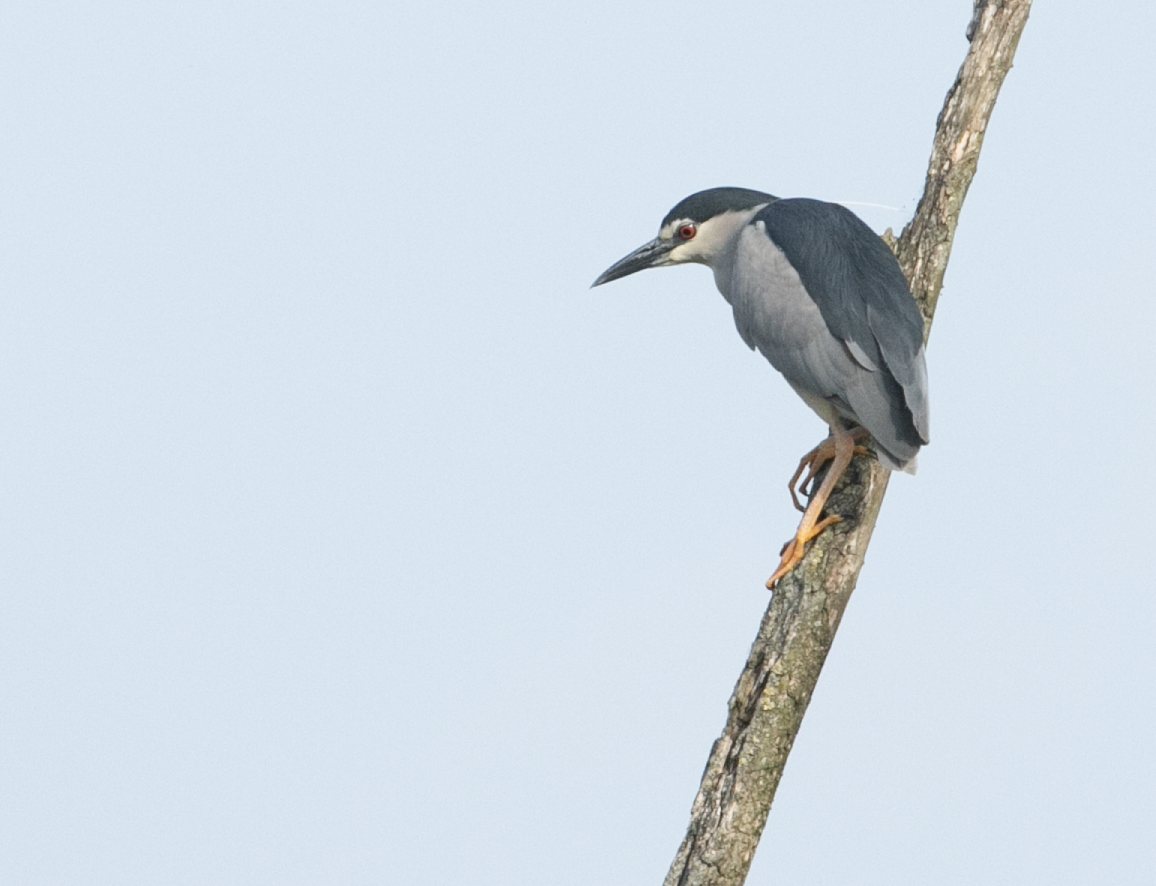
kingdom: Animalia
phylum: Chordata
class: Aves
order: Pelecaniformes
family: Ardeidae
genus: Nycticorax
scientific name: Nycticorax nycticorax
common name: Black-crowned night heron
